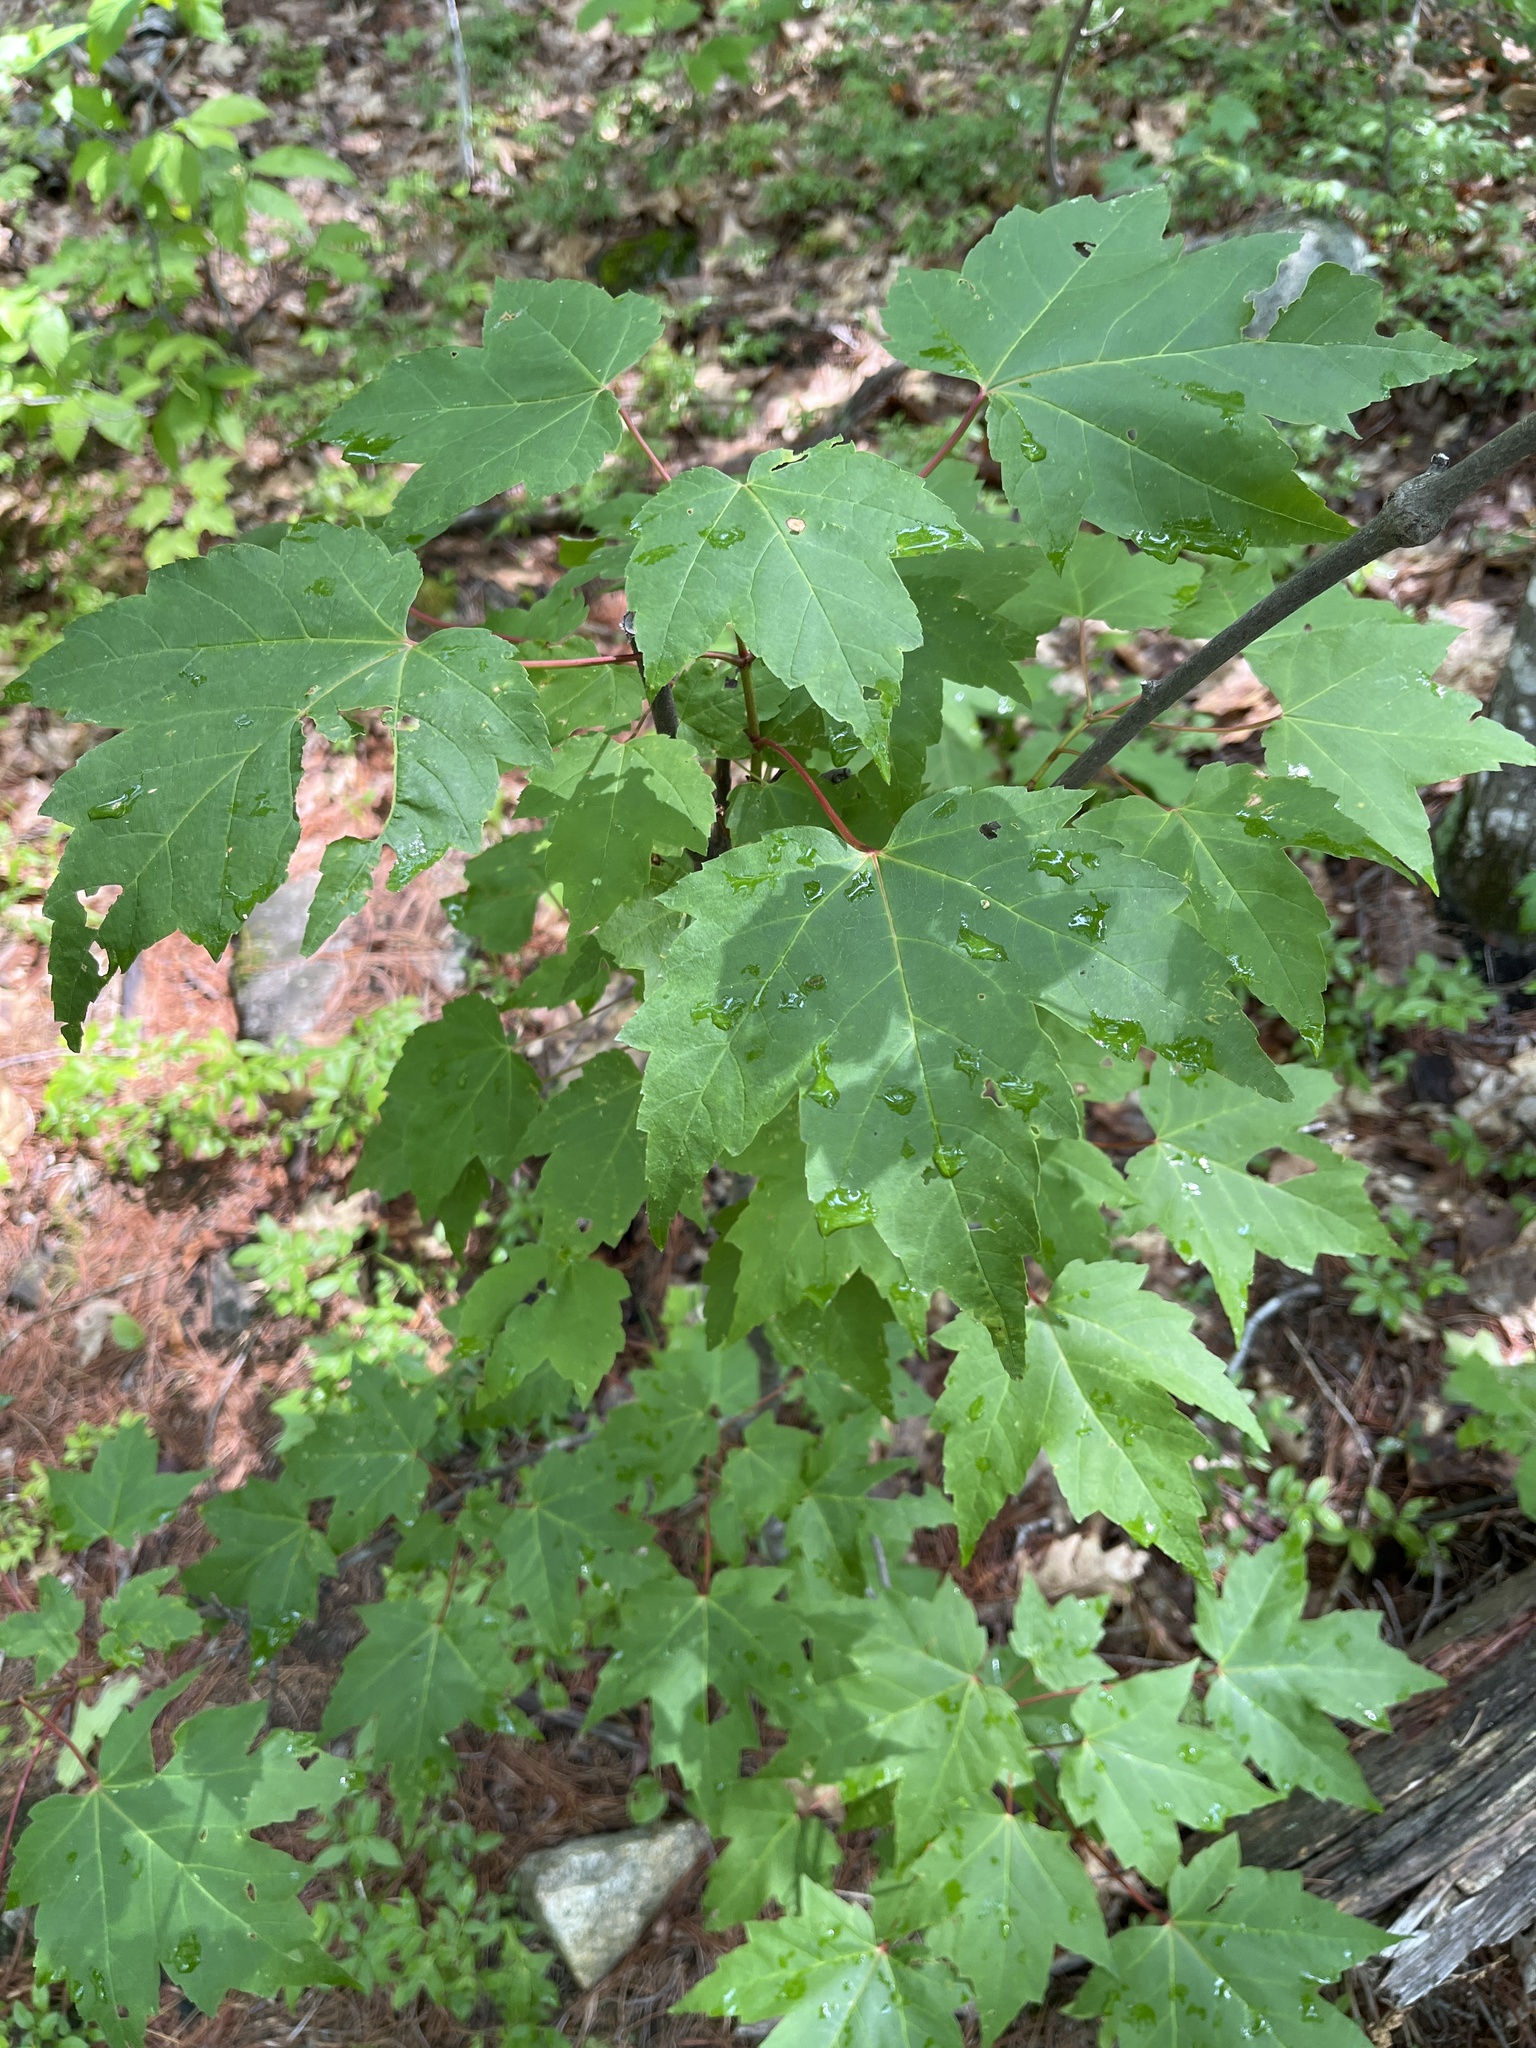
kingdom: Plantae
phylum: Tracheophyta
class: Magnoliopsida
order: Sapindales
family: Sapindaceae
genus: Acer
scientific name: Acer rubrum
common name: Red maple
